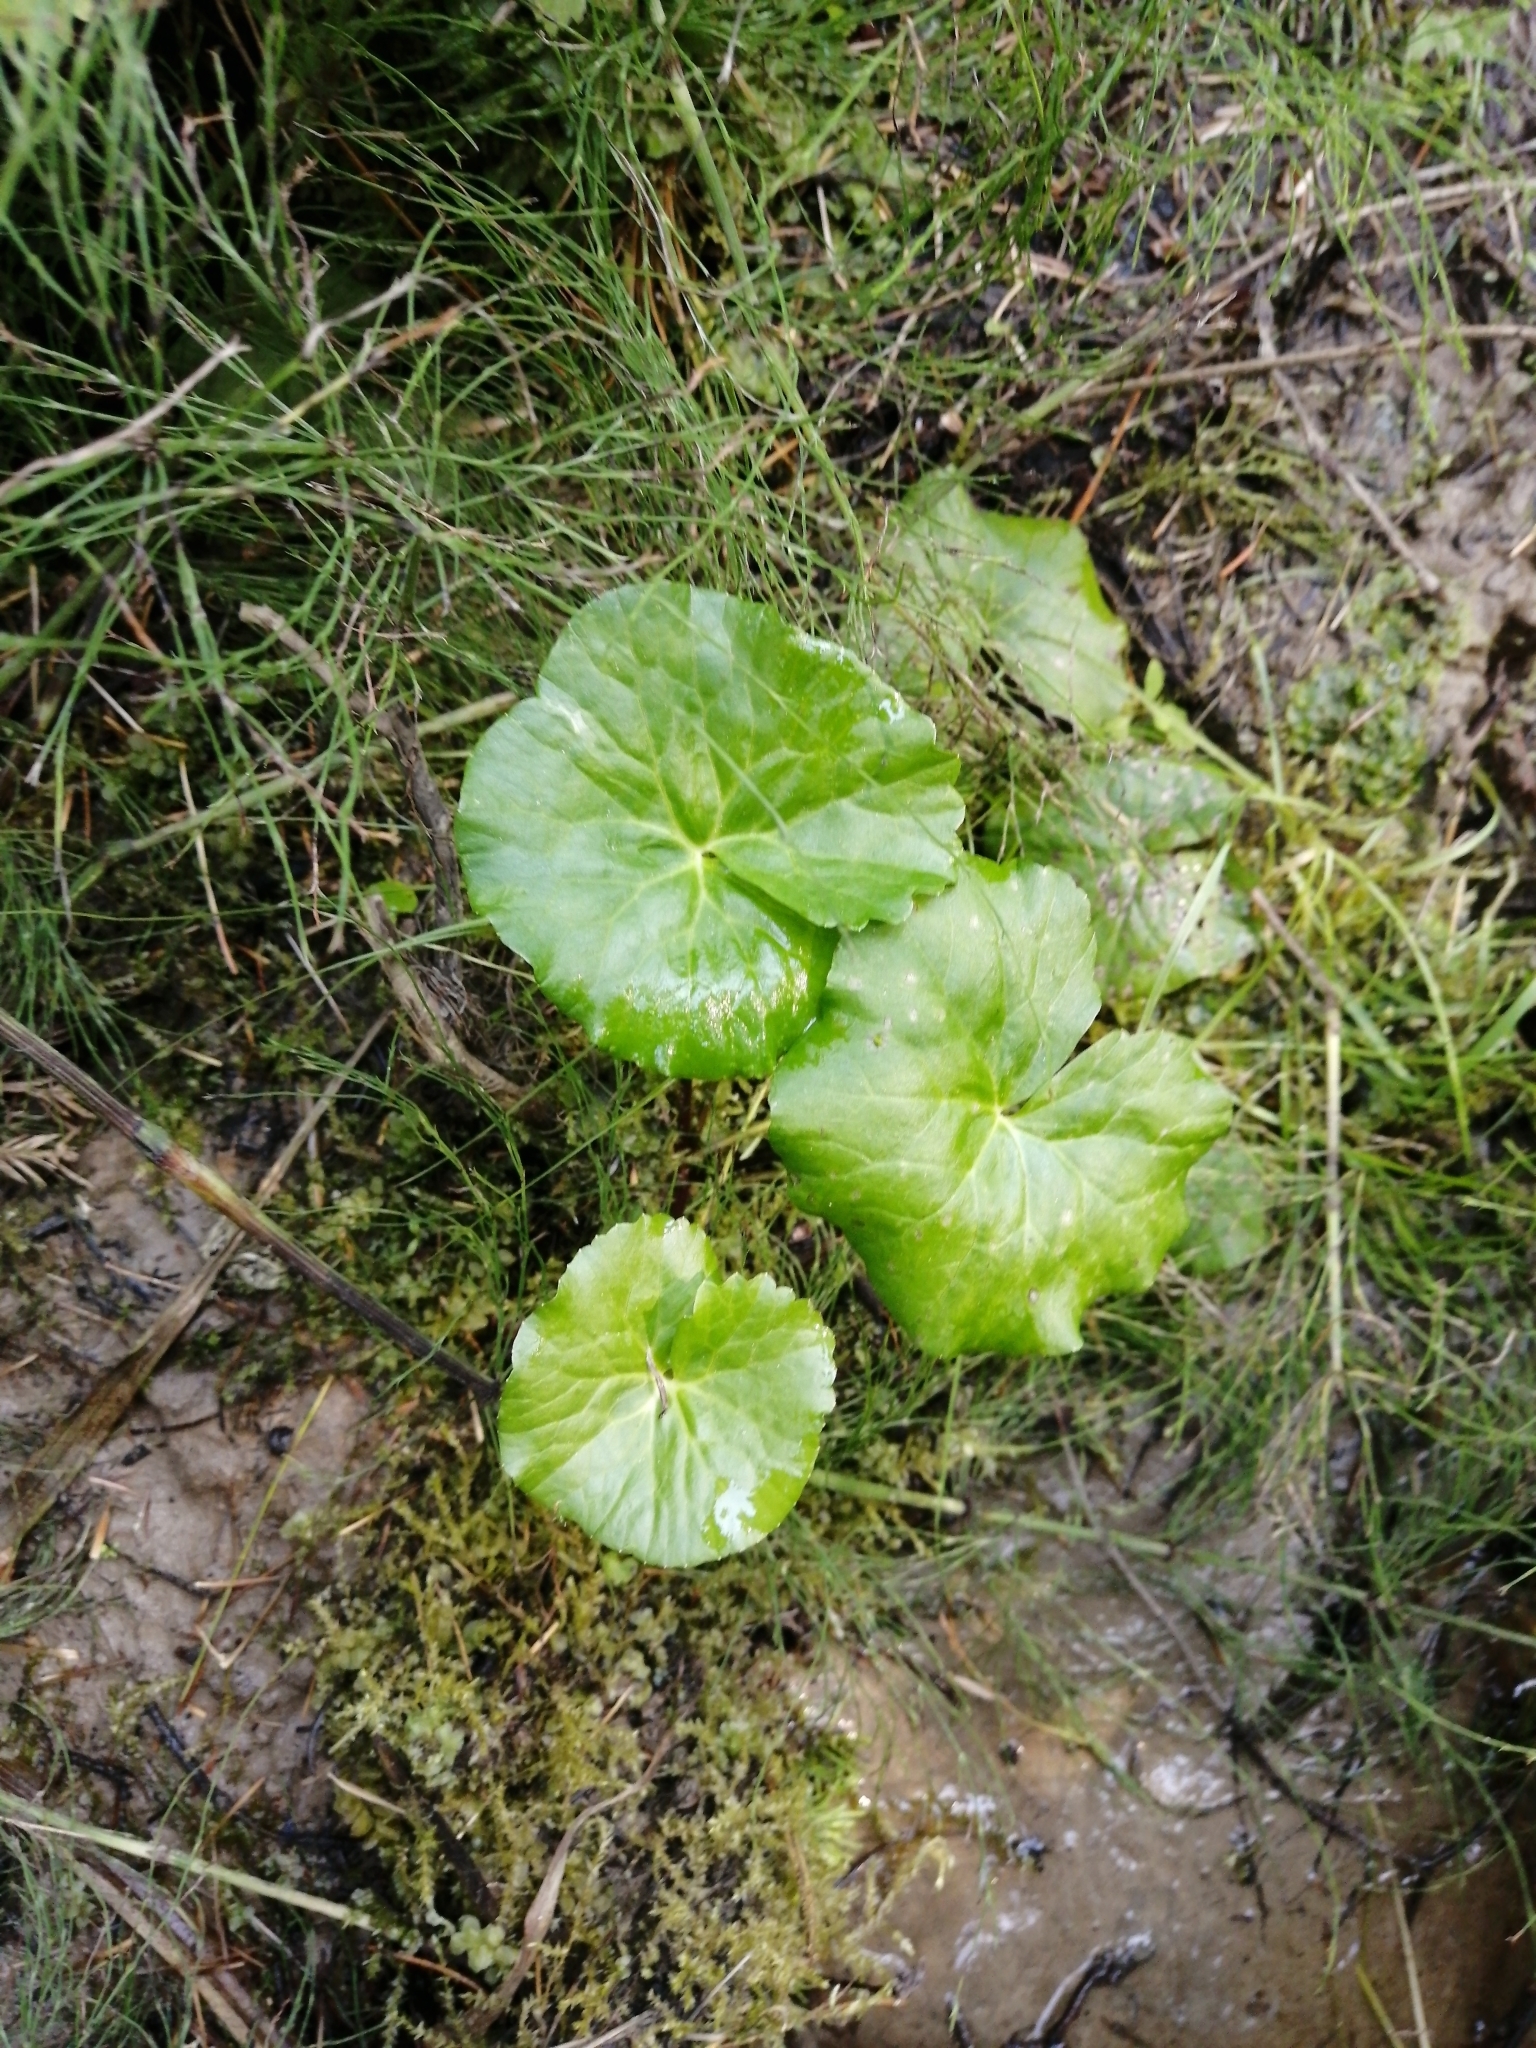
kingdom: Plantae
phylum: Tracheophyta
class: Magnoliopsida
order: Ranunculales
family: Ranunculaceae
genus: Caltha
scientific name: Caltha palustris
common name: Marsh marigold
